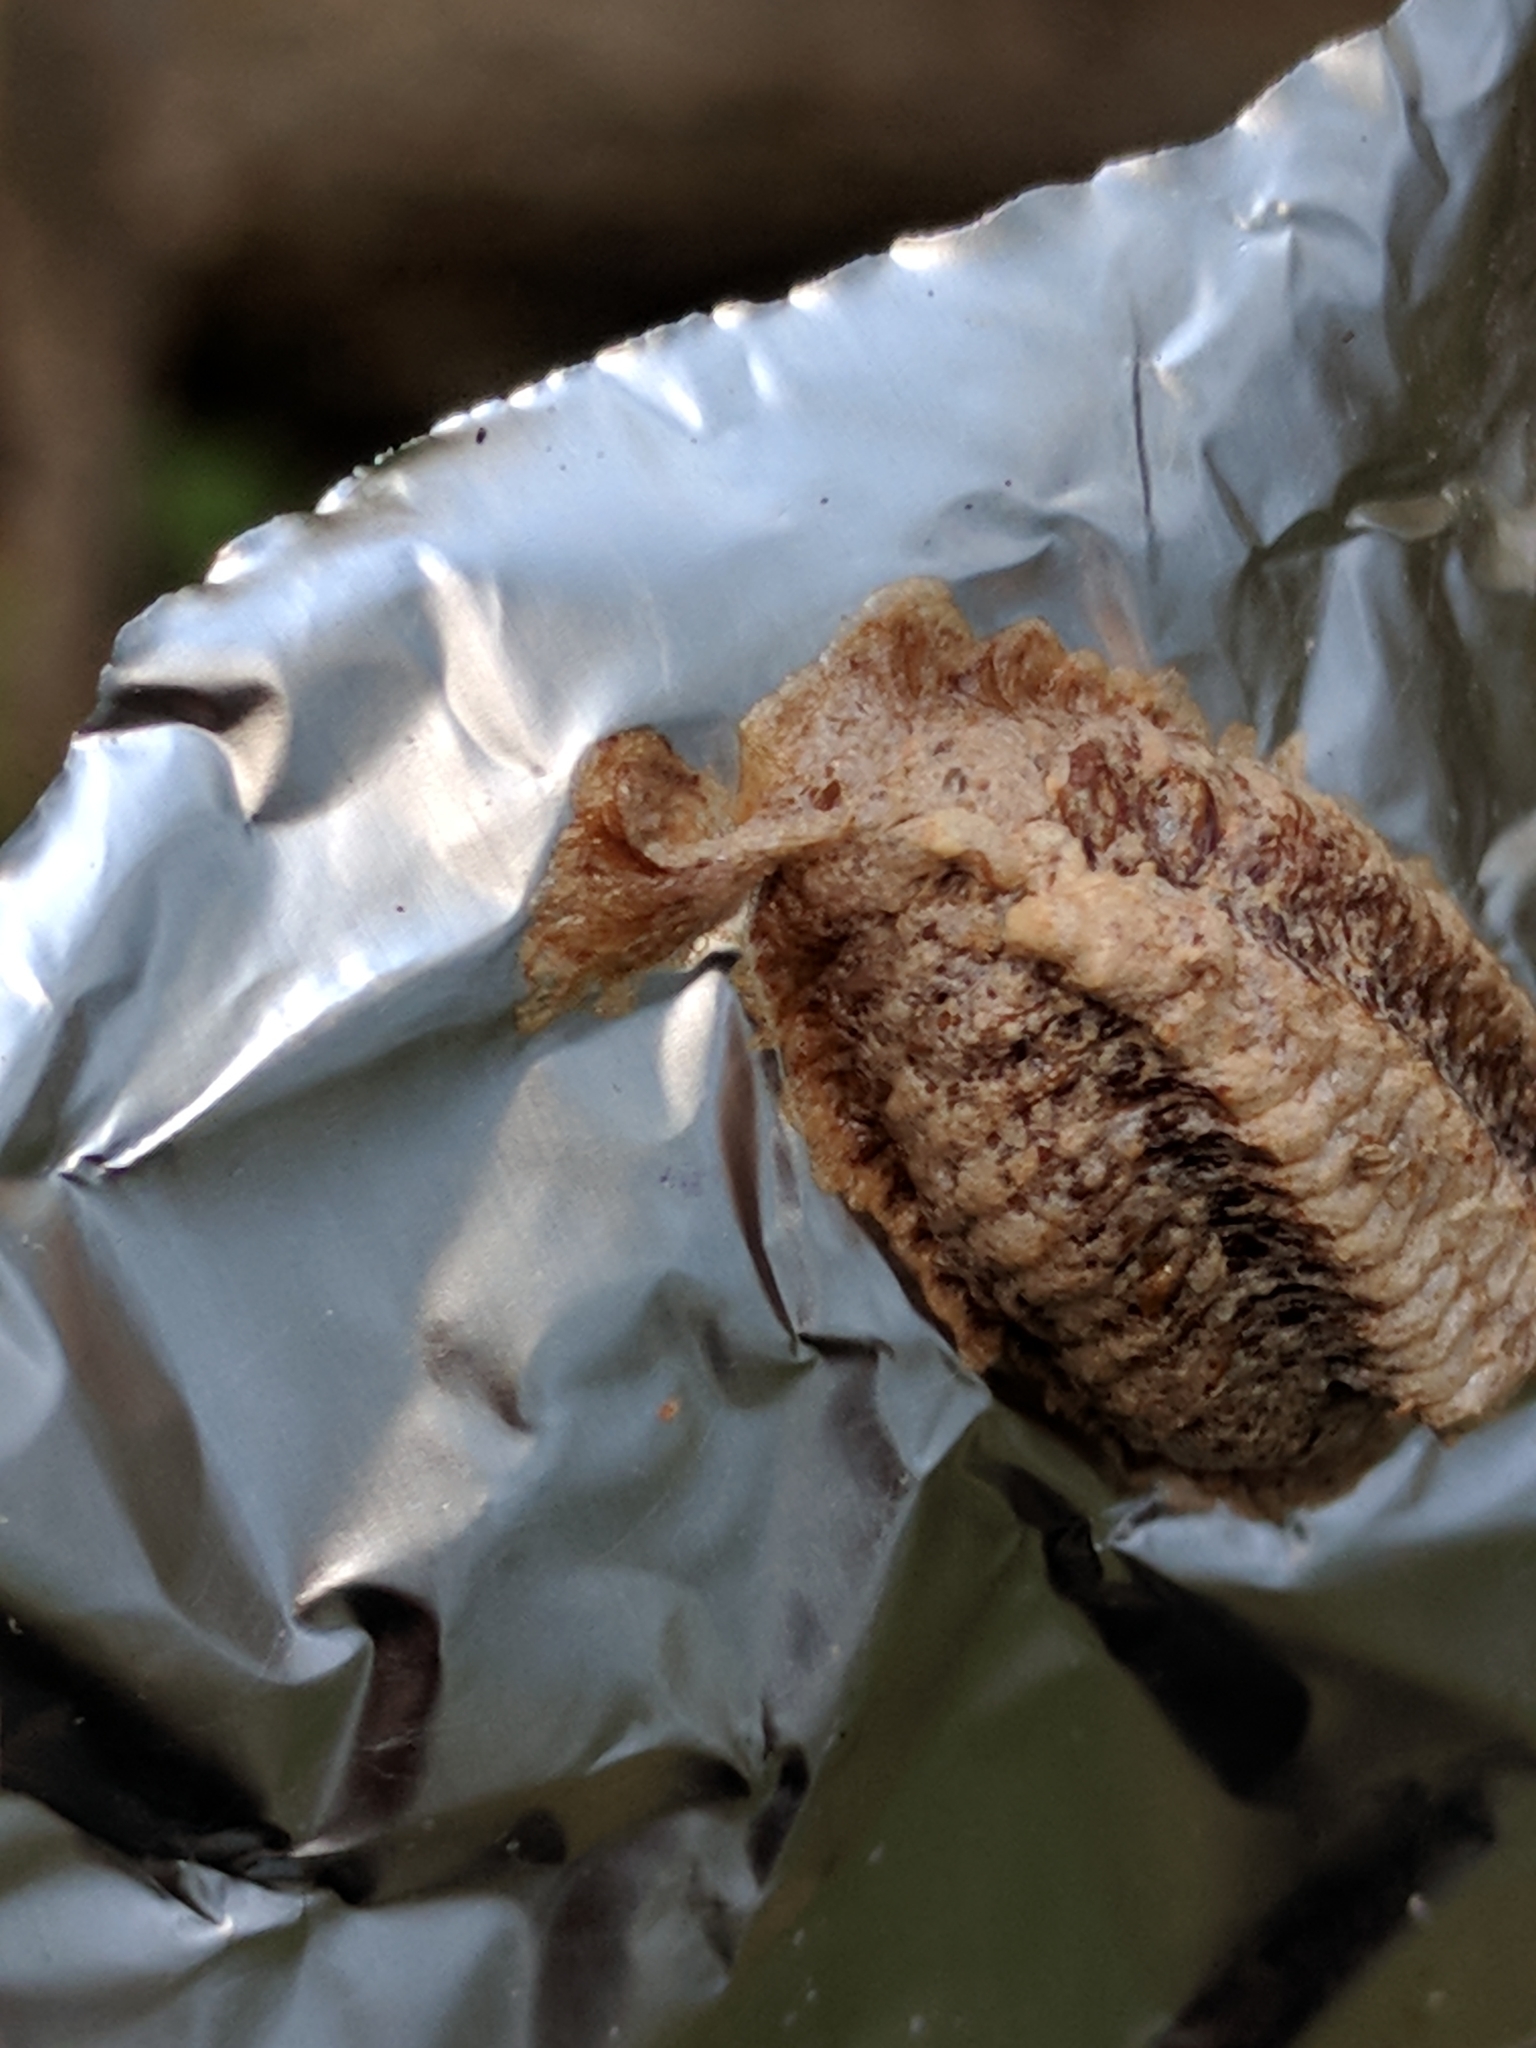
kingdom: Animalia
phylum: Arthropoda
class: Insecta
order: Mantodea
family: Mantidae
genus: Stagmomantis
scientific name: Stagmomantis carolina
